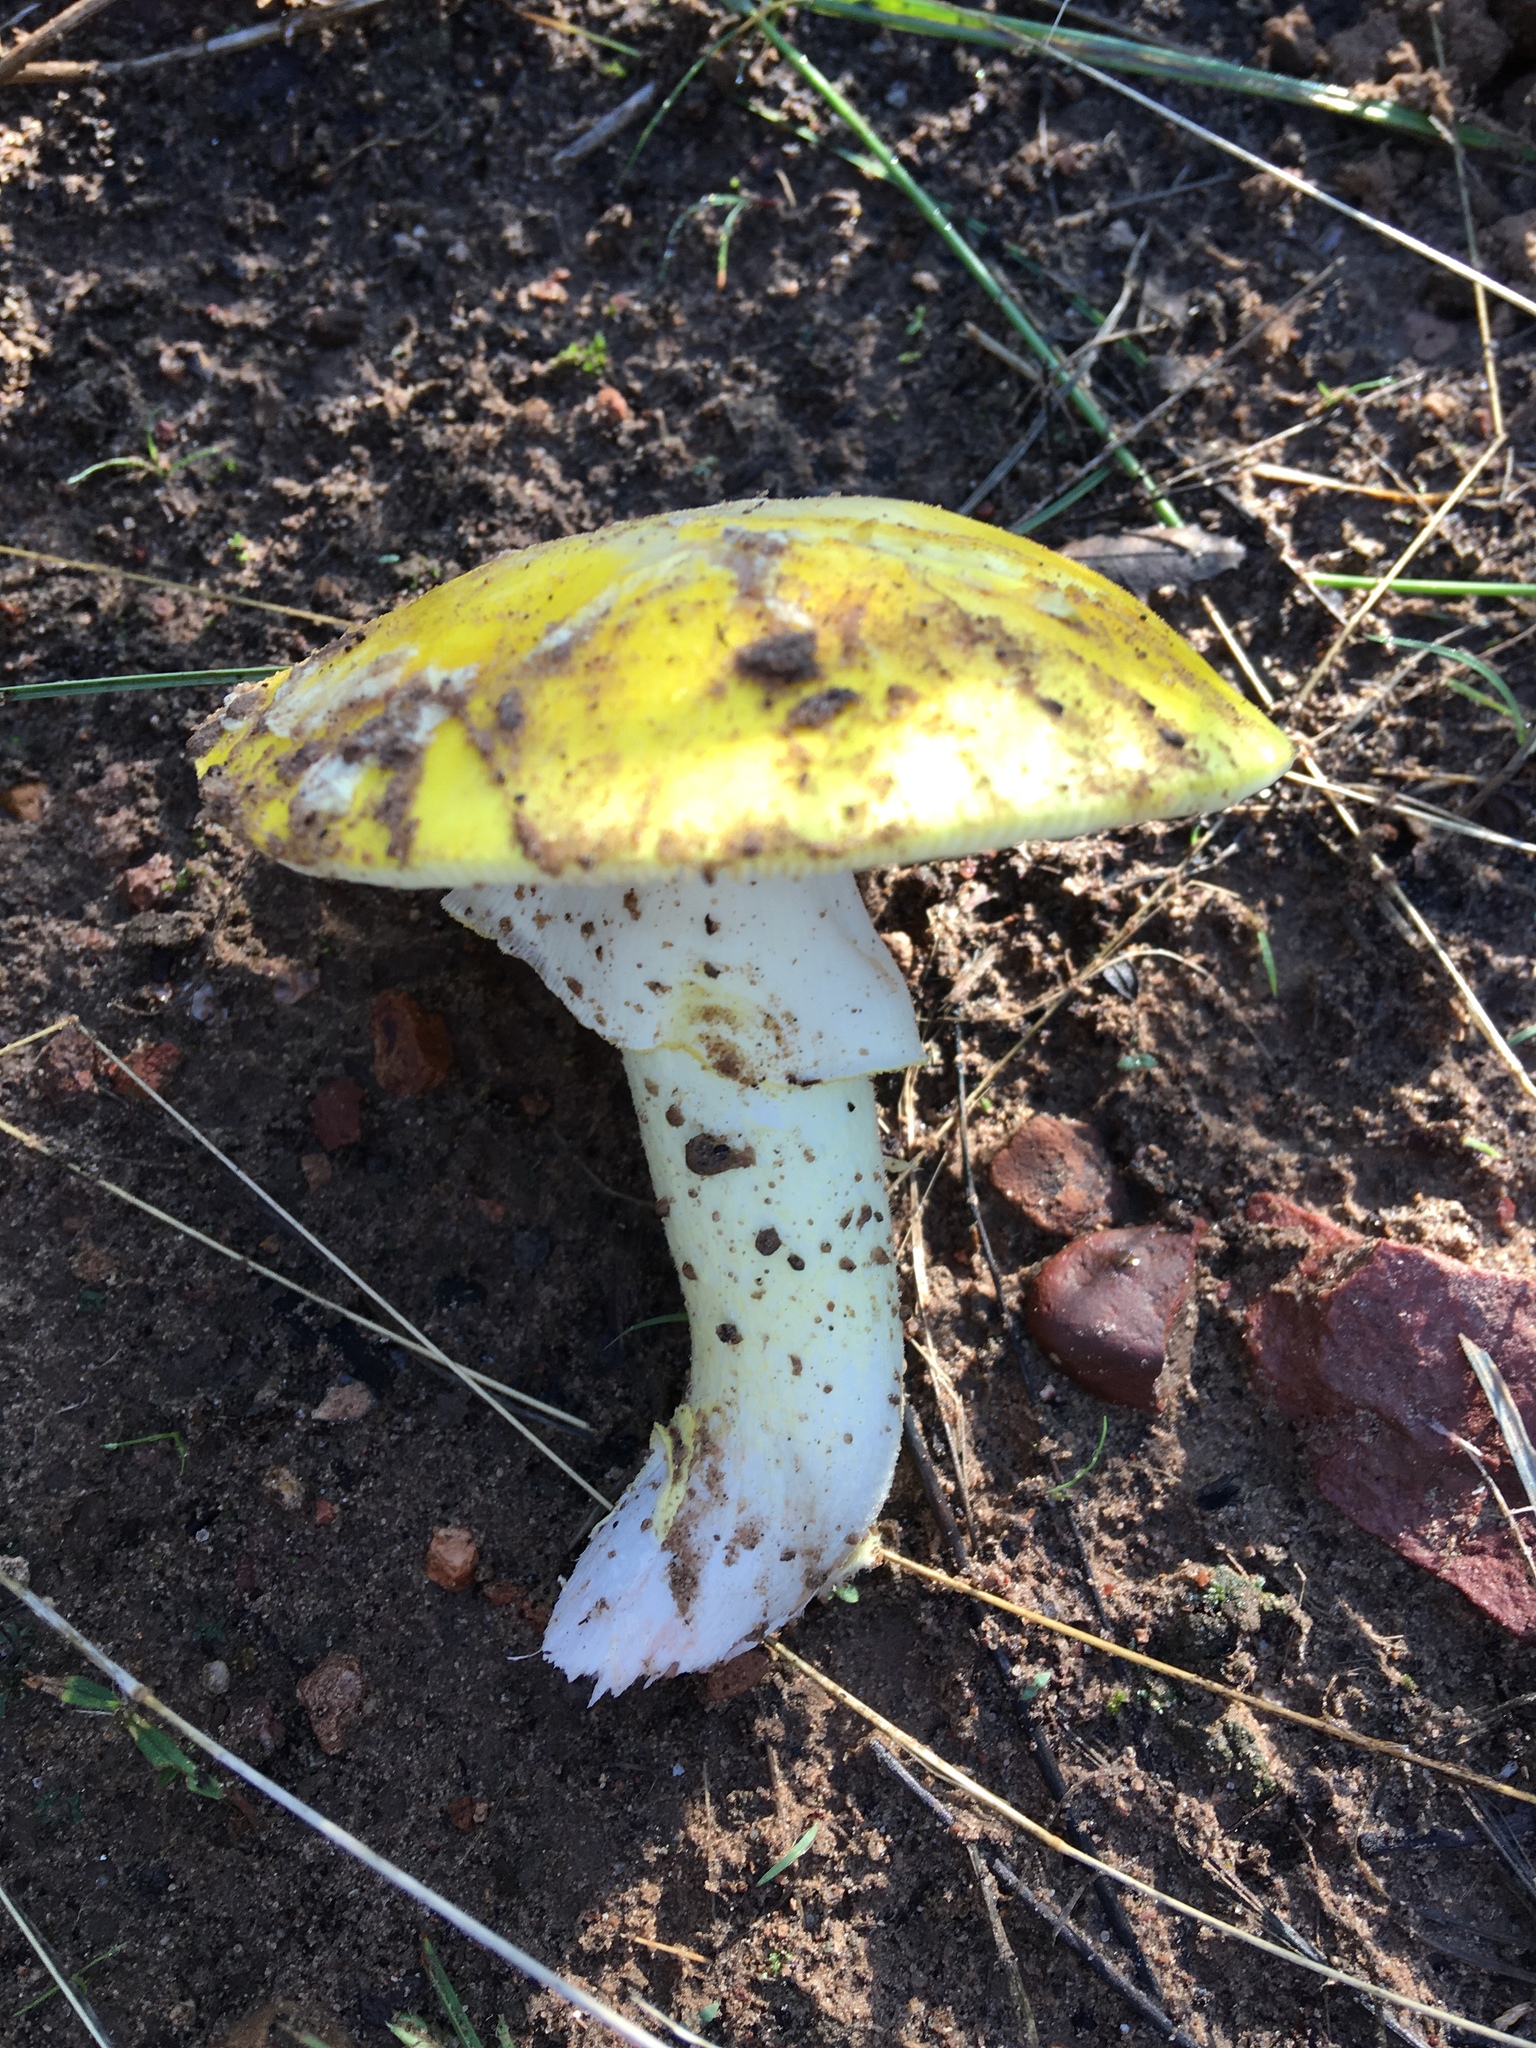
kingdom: Fungi
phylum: Basidiomycota
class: Agaricomycetes
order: Agaricales
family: Amanitaceae
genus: Amanita
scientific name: Amanita flavorubens
